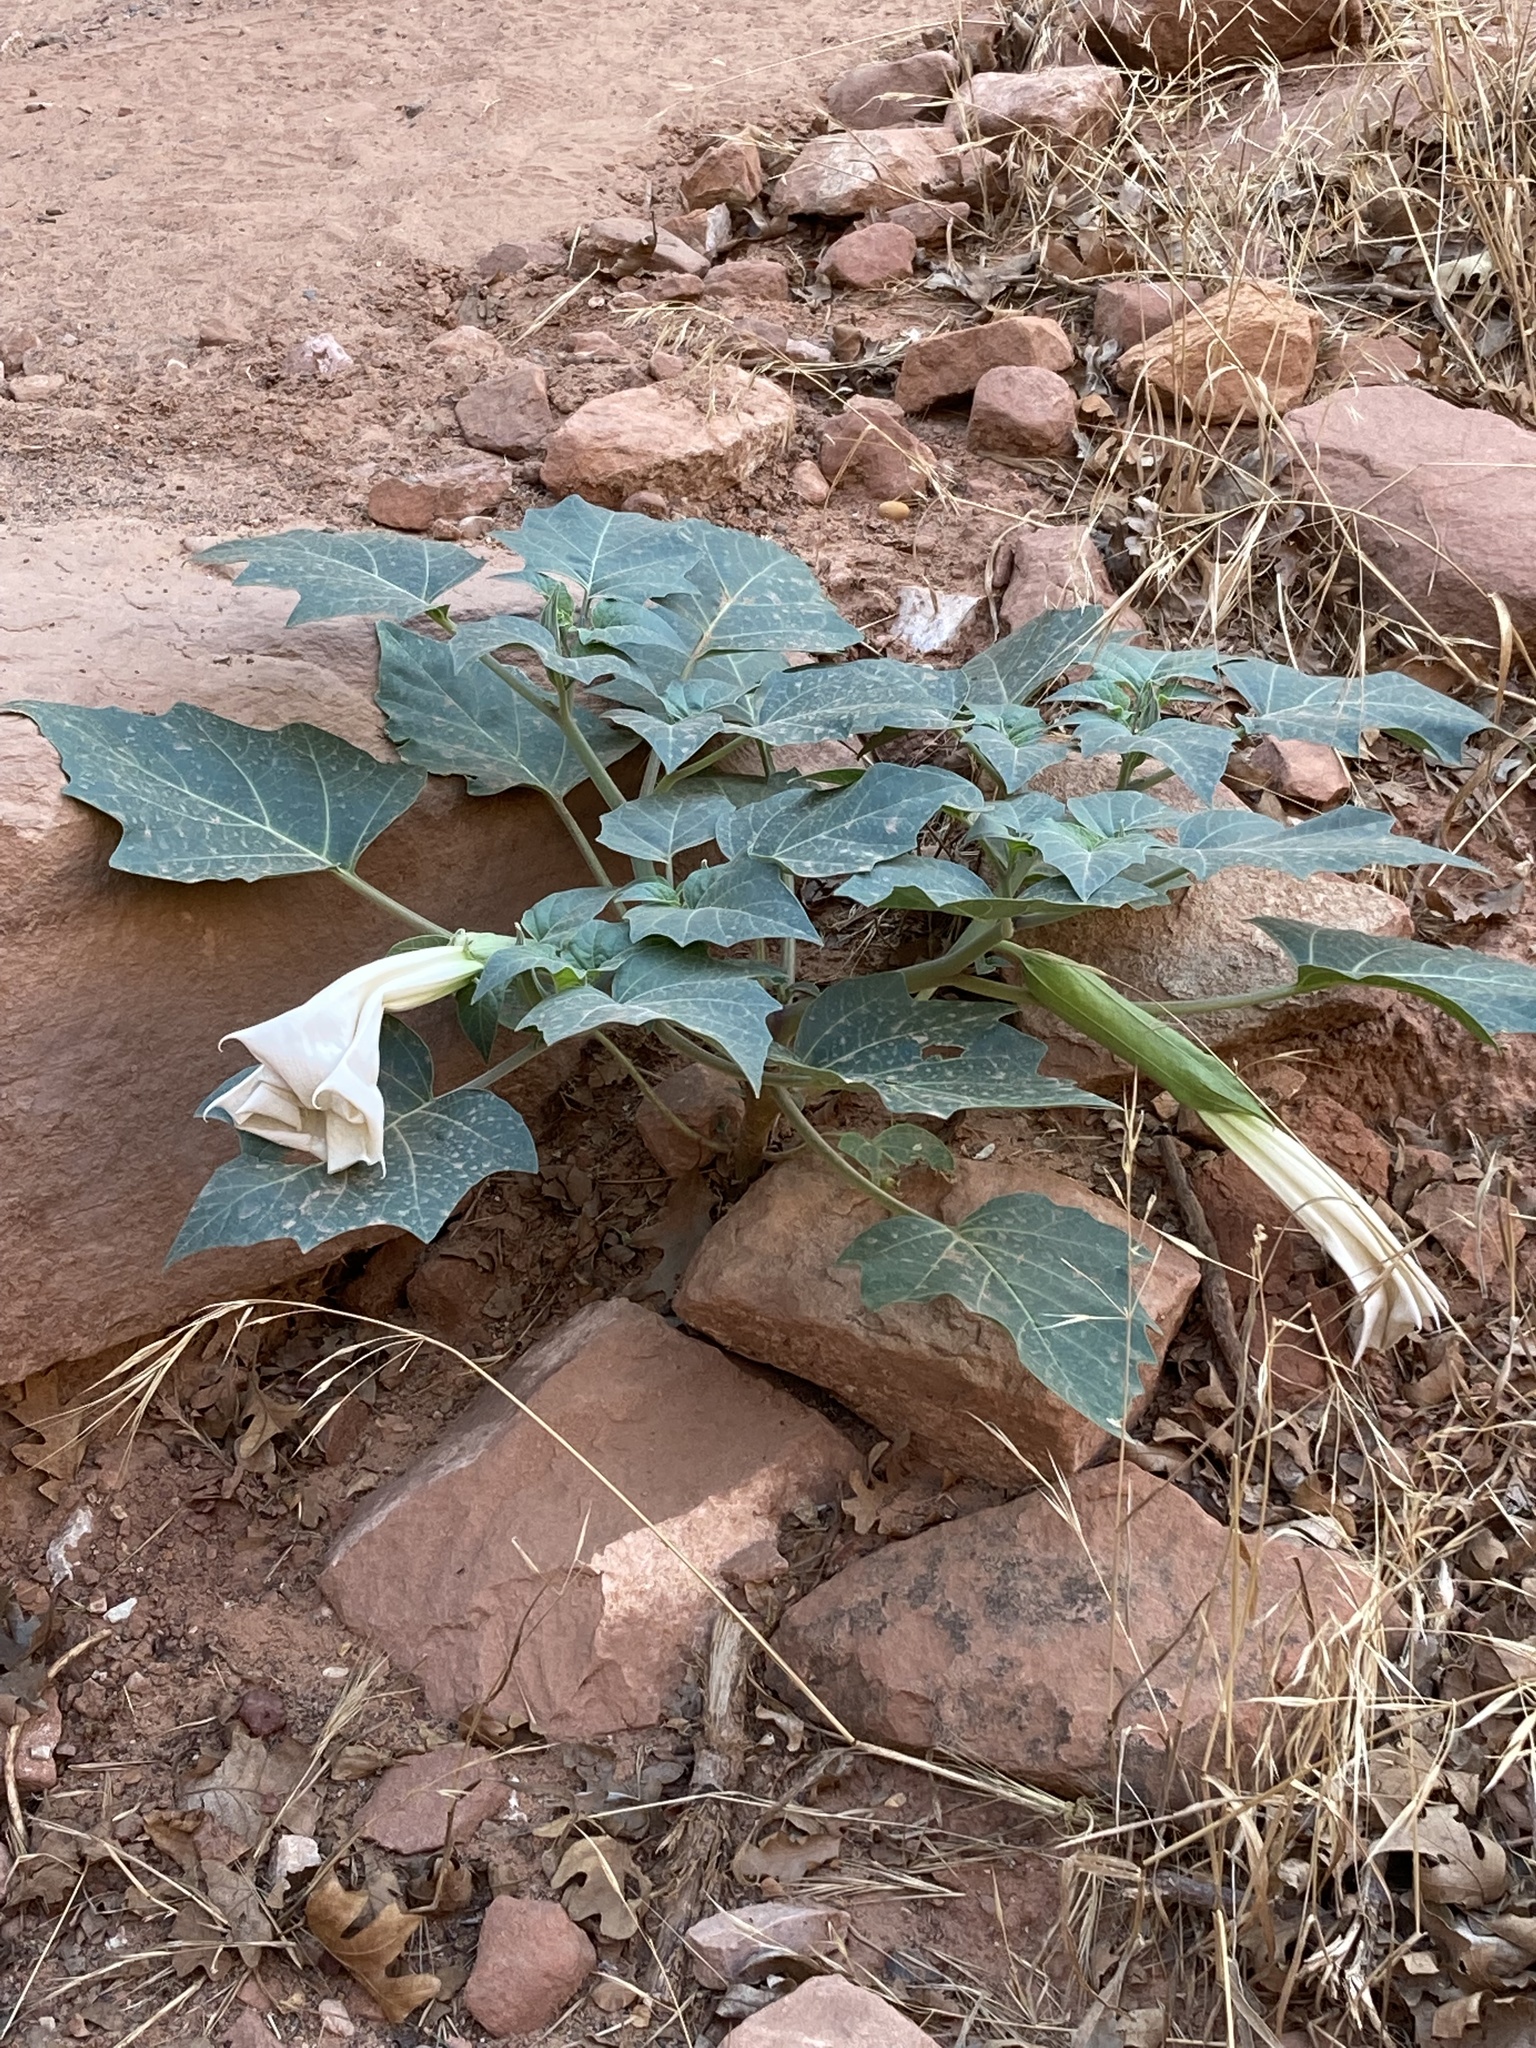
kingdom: Plantae
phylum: Tracheophyta
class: Magnoliopsida
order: Solanales
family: Solanaceae
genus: Datura
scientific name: Datura wrightii
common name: Sacred thorn-apple
